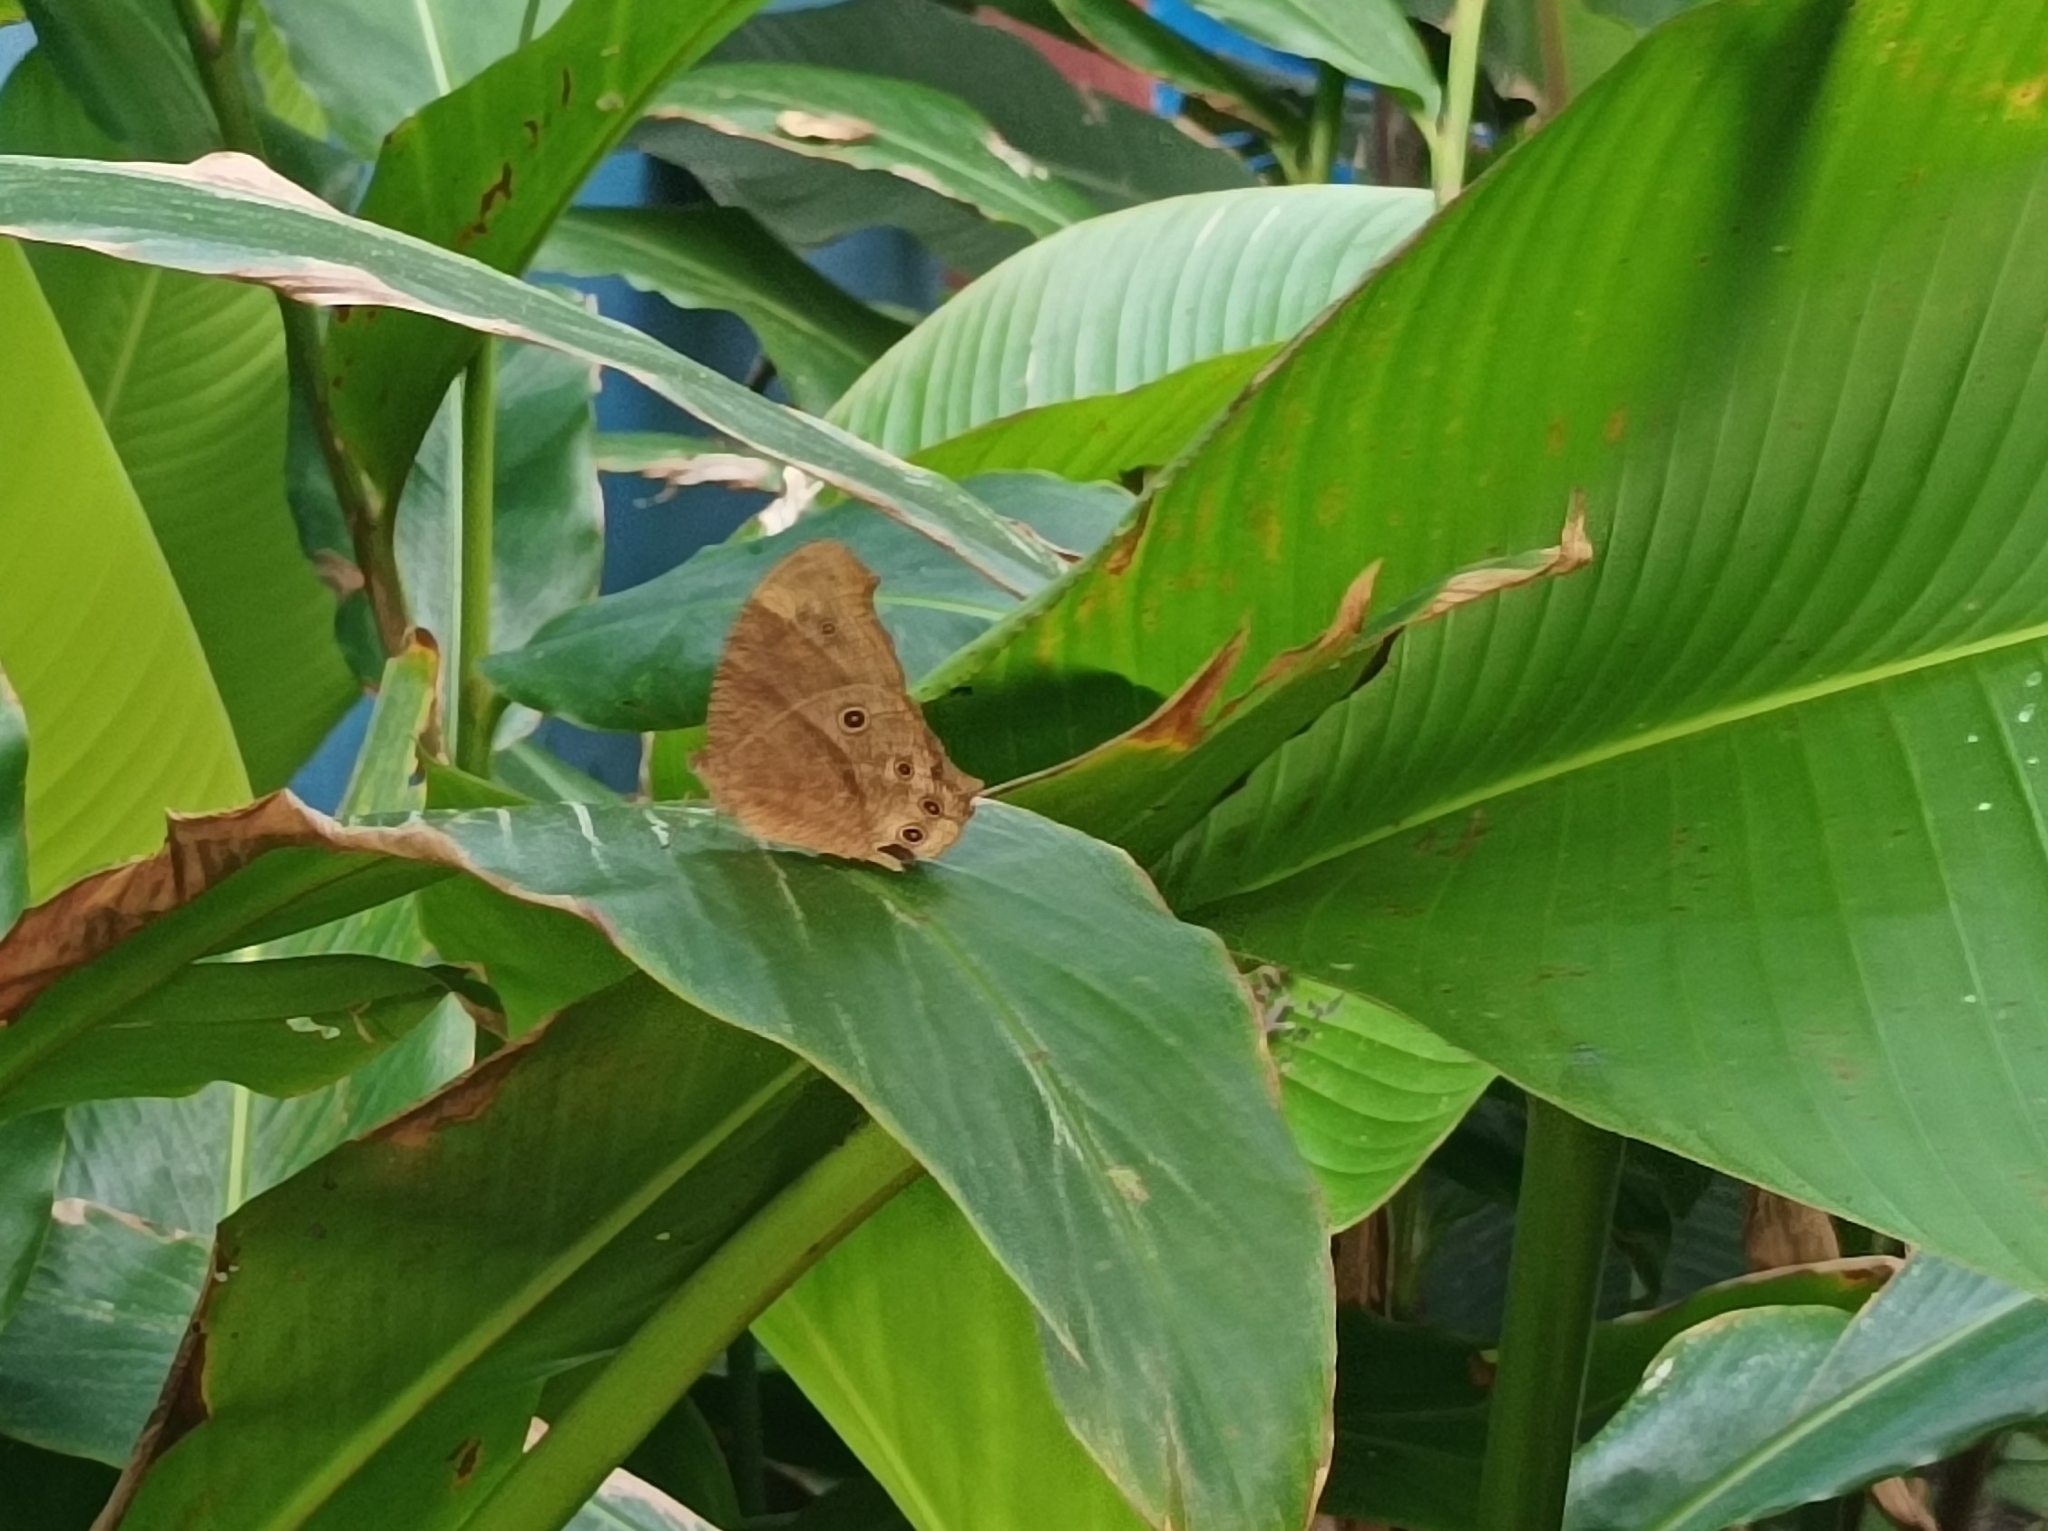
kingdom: Animalia
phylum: Arthropoda
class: Insecta
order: Lepidoptera
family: Nymphalidae
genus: Melanitis
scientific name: Melanitis leda
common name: Twilight brown
